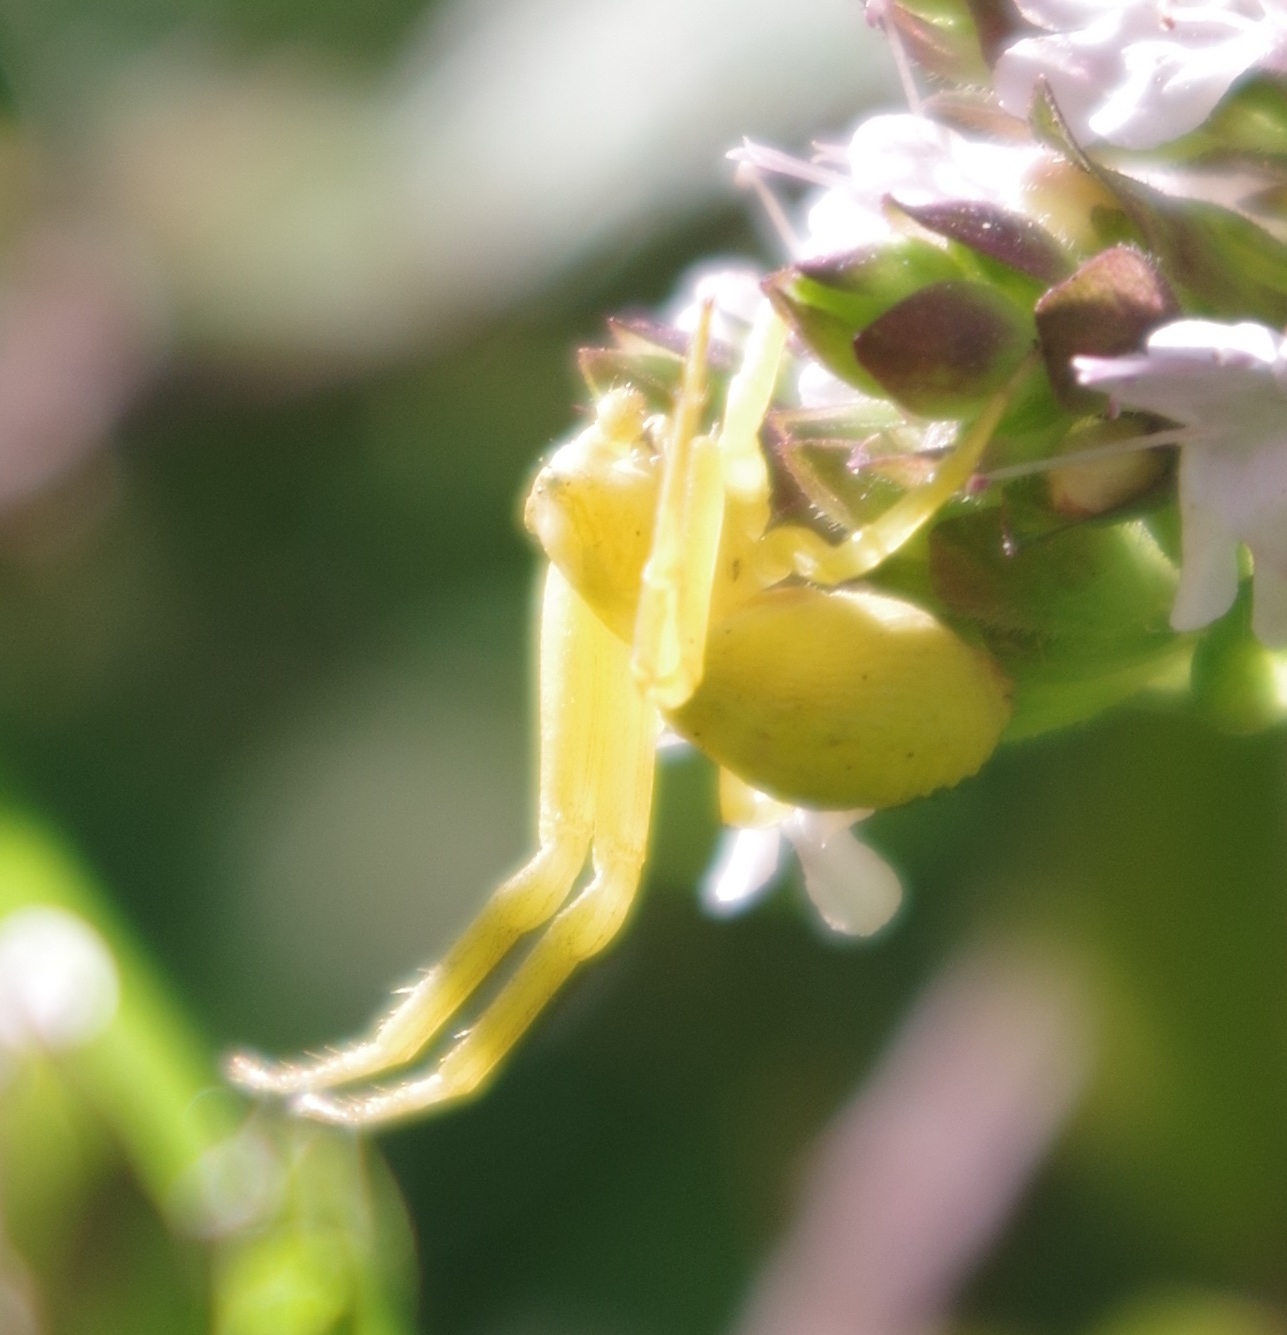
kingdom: Animalia
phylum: Arthropoda
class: Arachnida
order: Araneae
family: Thomisidae
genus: Misumena
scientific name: Misumena vatia
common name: Goldenrod crab spider
